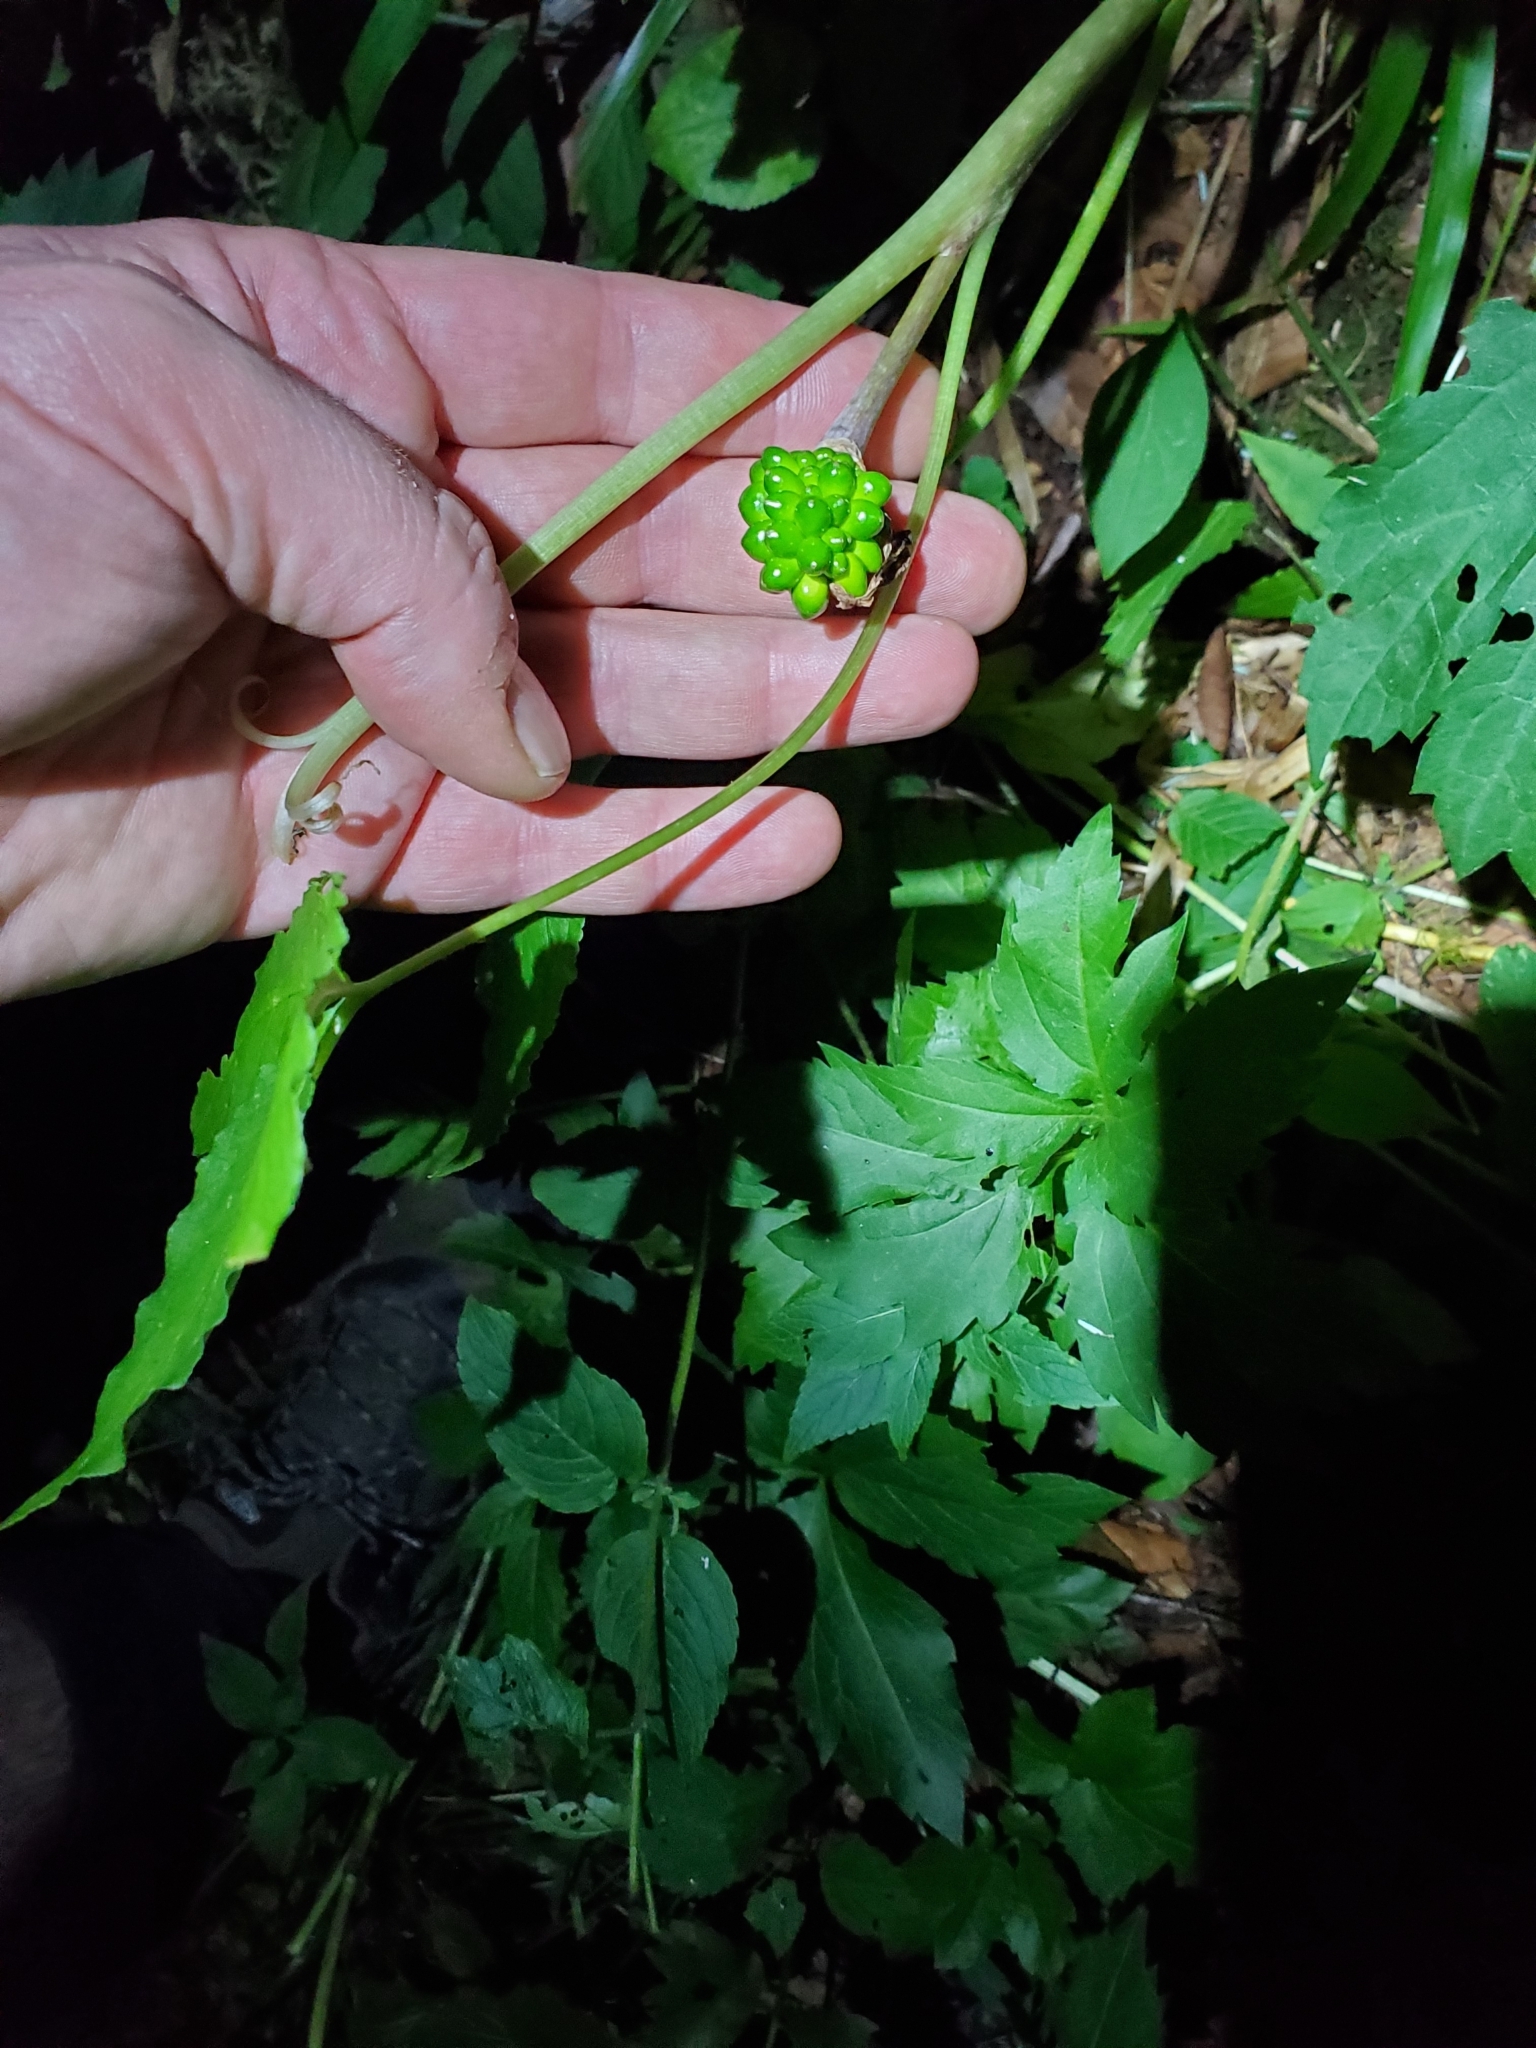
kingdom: Plantae
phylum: Tracheophyta
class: Liliopsida
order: Alismatales
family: Araceae
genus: Arisaema
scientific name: Arisaema triphyllum
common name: Jack-in-the-pulpit
